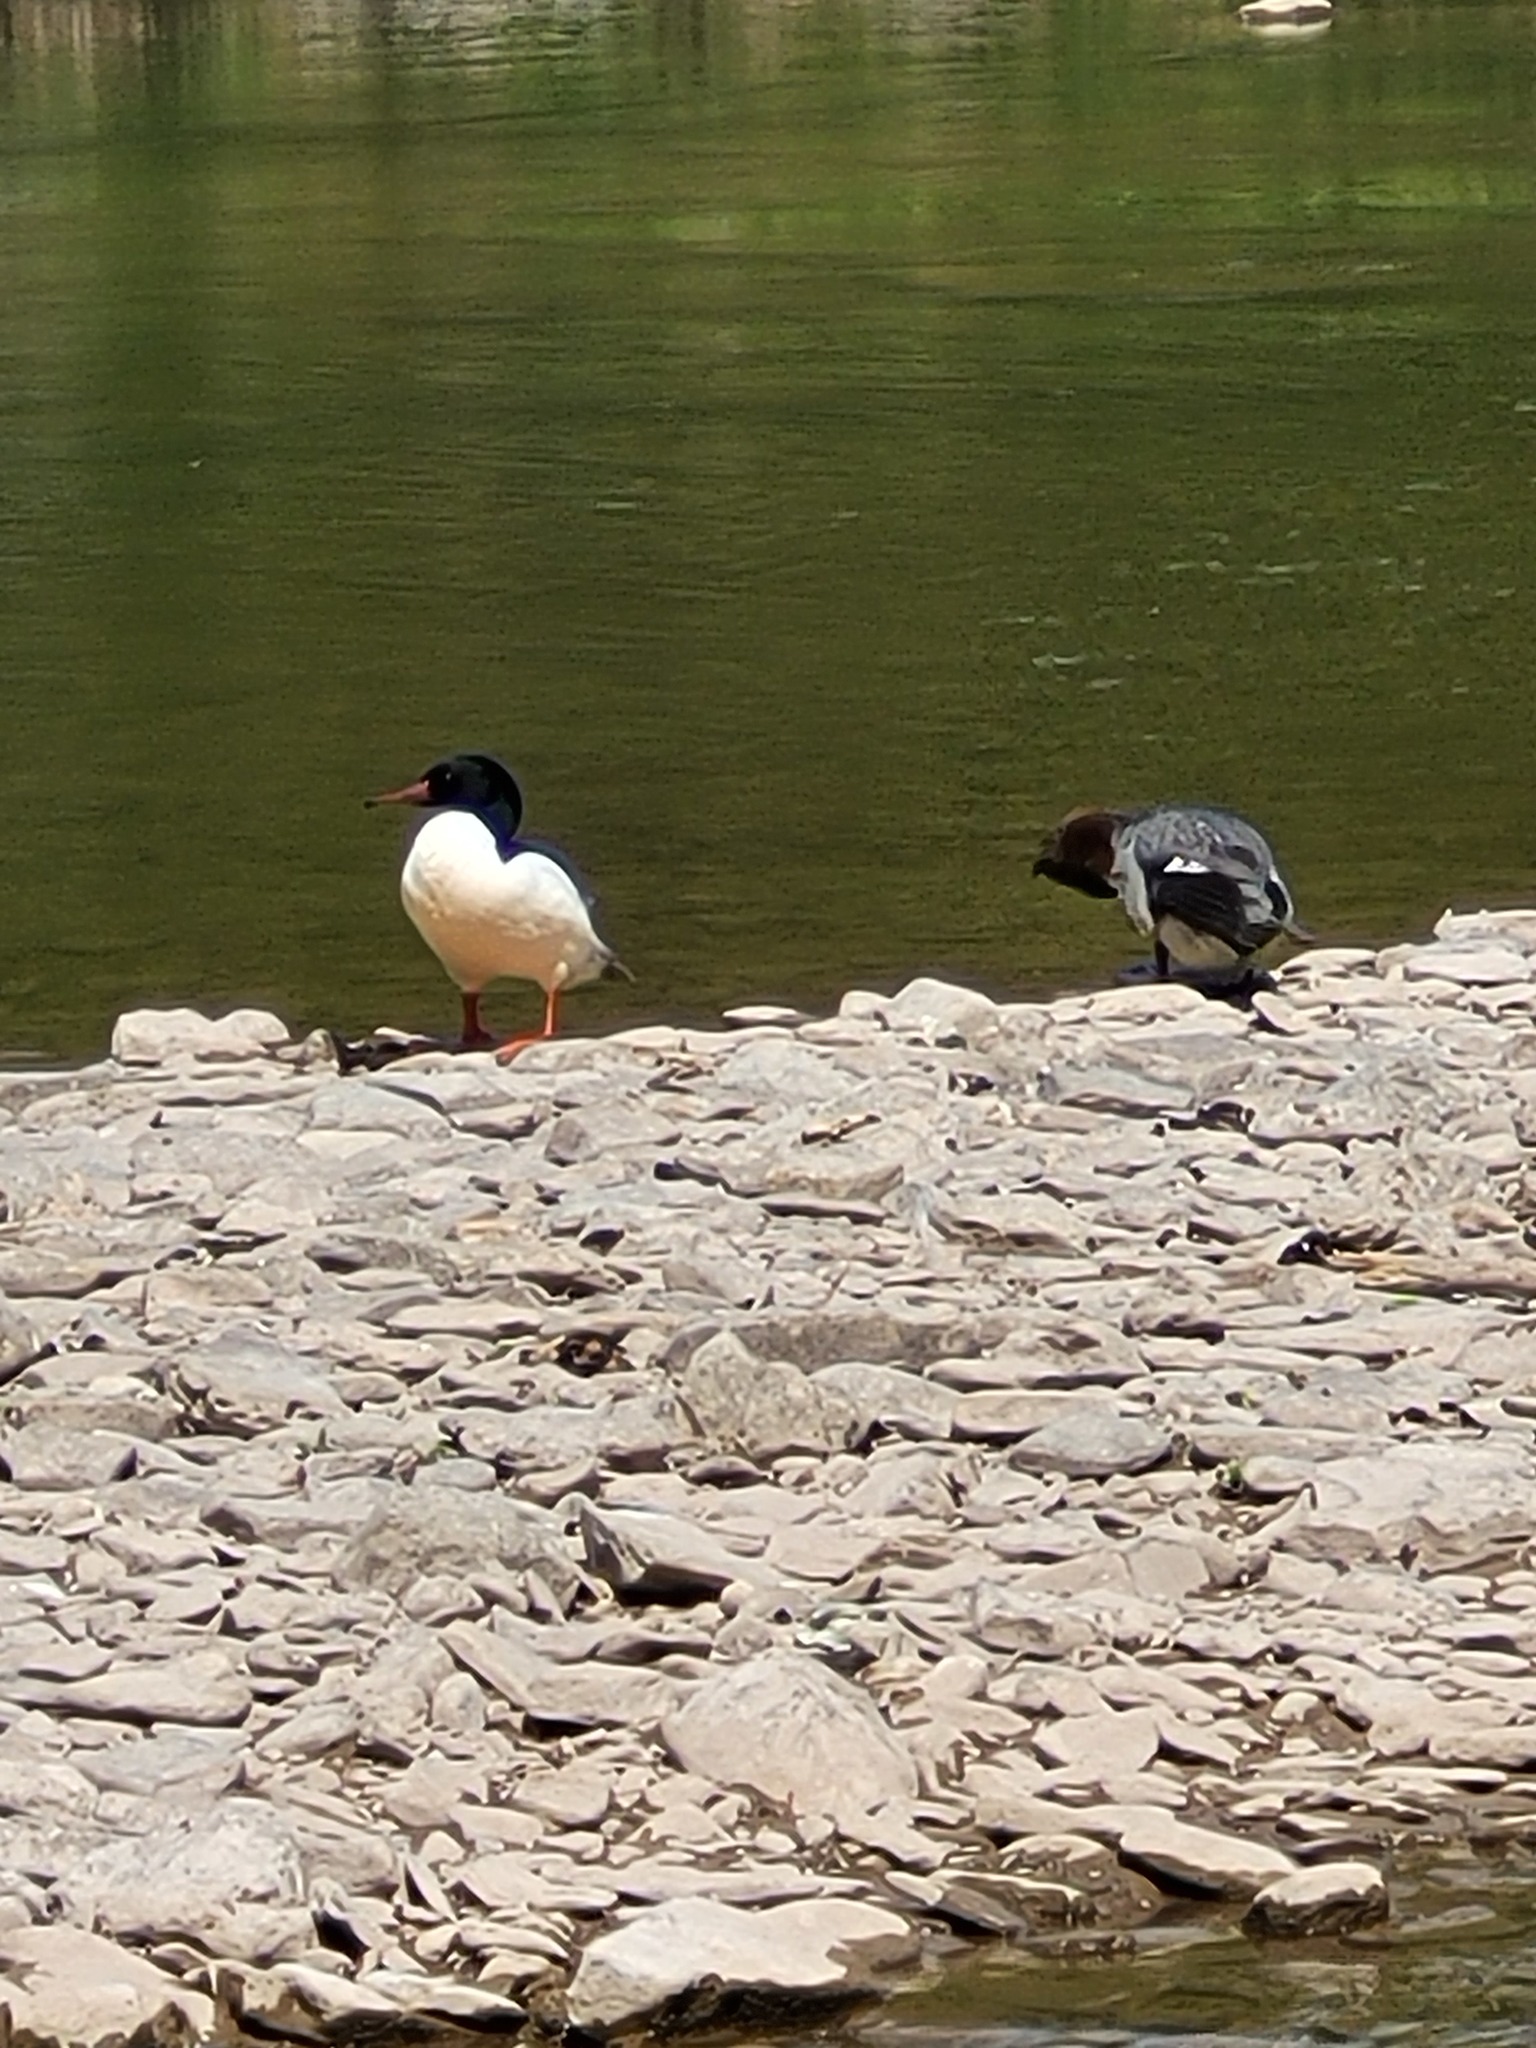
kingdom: Animalia
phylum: Chordata
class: Aves
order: Anseriformes
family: Anatidae
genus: Mergus
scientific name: Mergus merganser
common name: Common merganser
